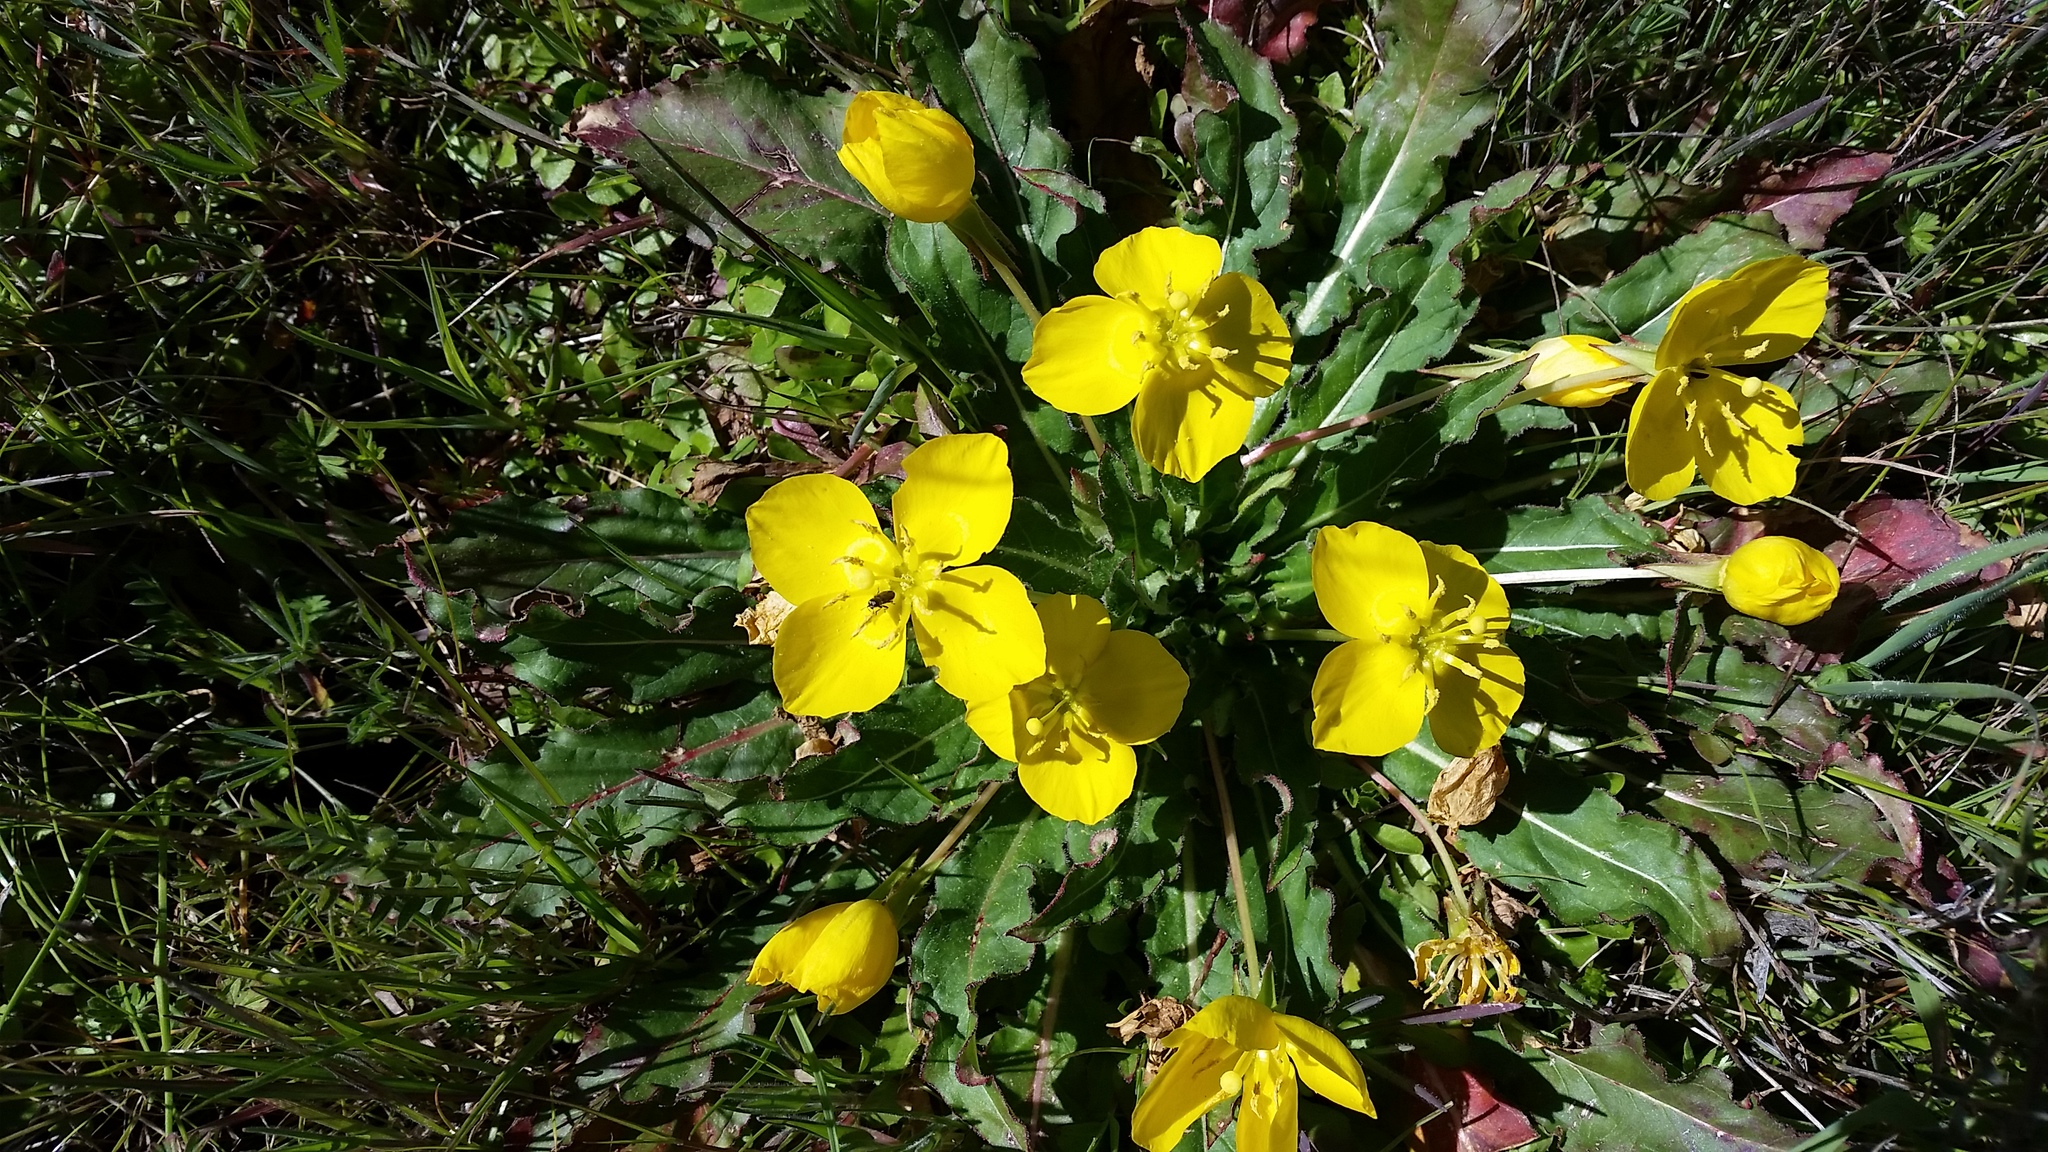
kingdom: Plantae
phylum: Tracheophyta
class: Magnoliopsida
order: Myrtales
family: Onagraceae
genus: Taraxia
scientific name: Taraxia ovata
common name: Goldeneggs
